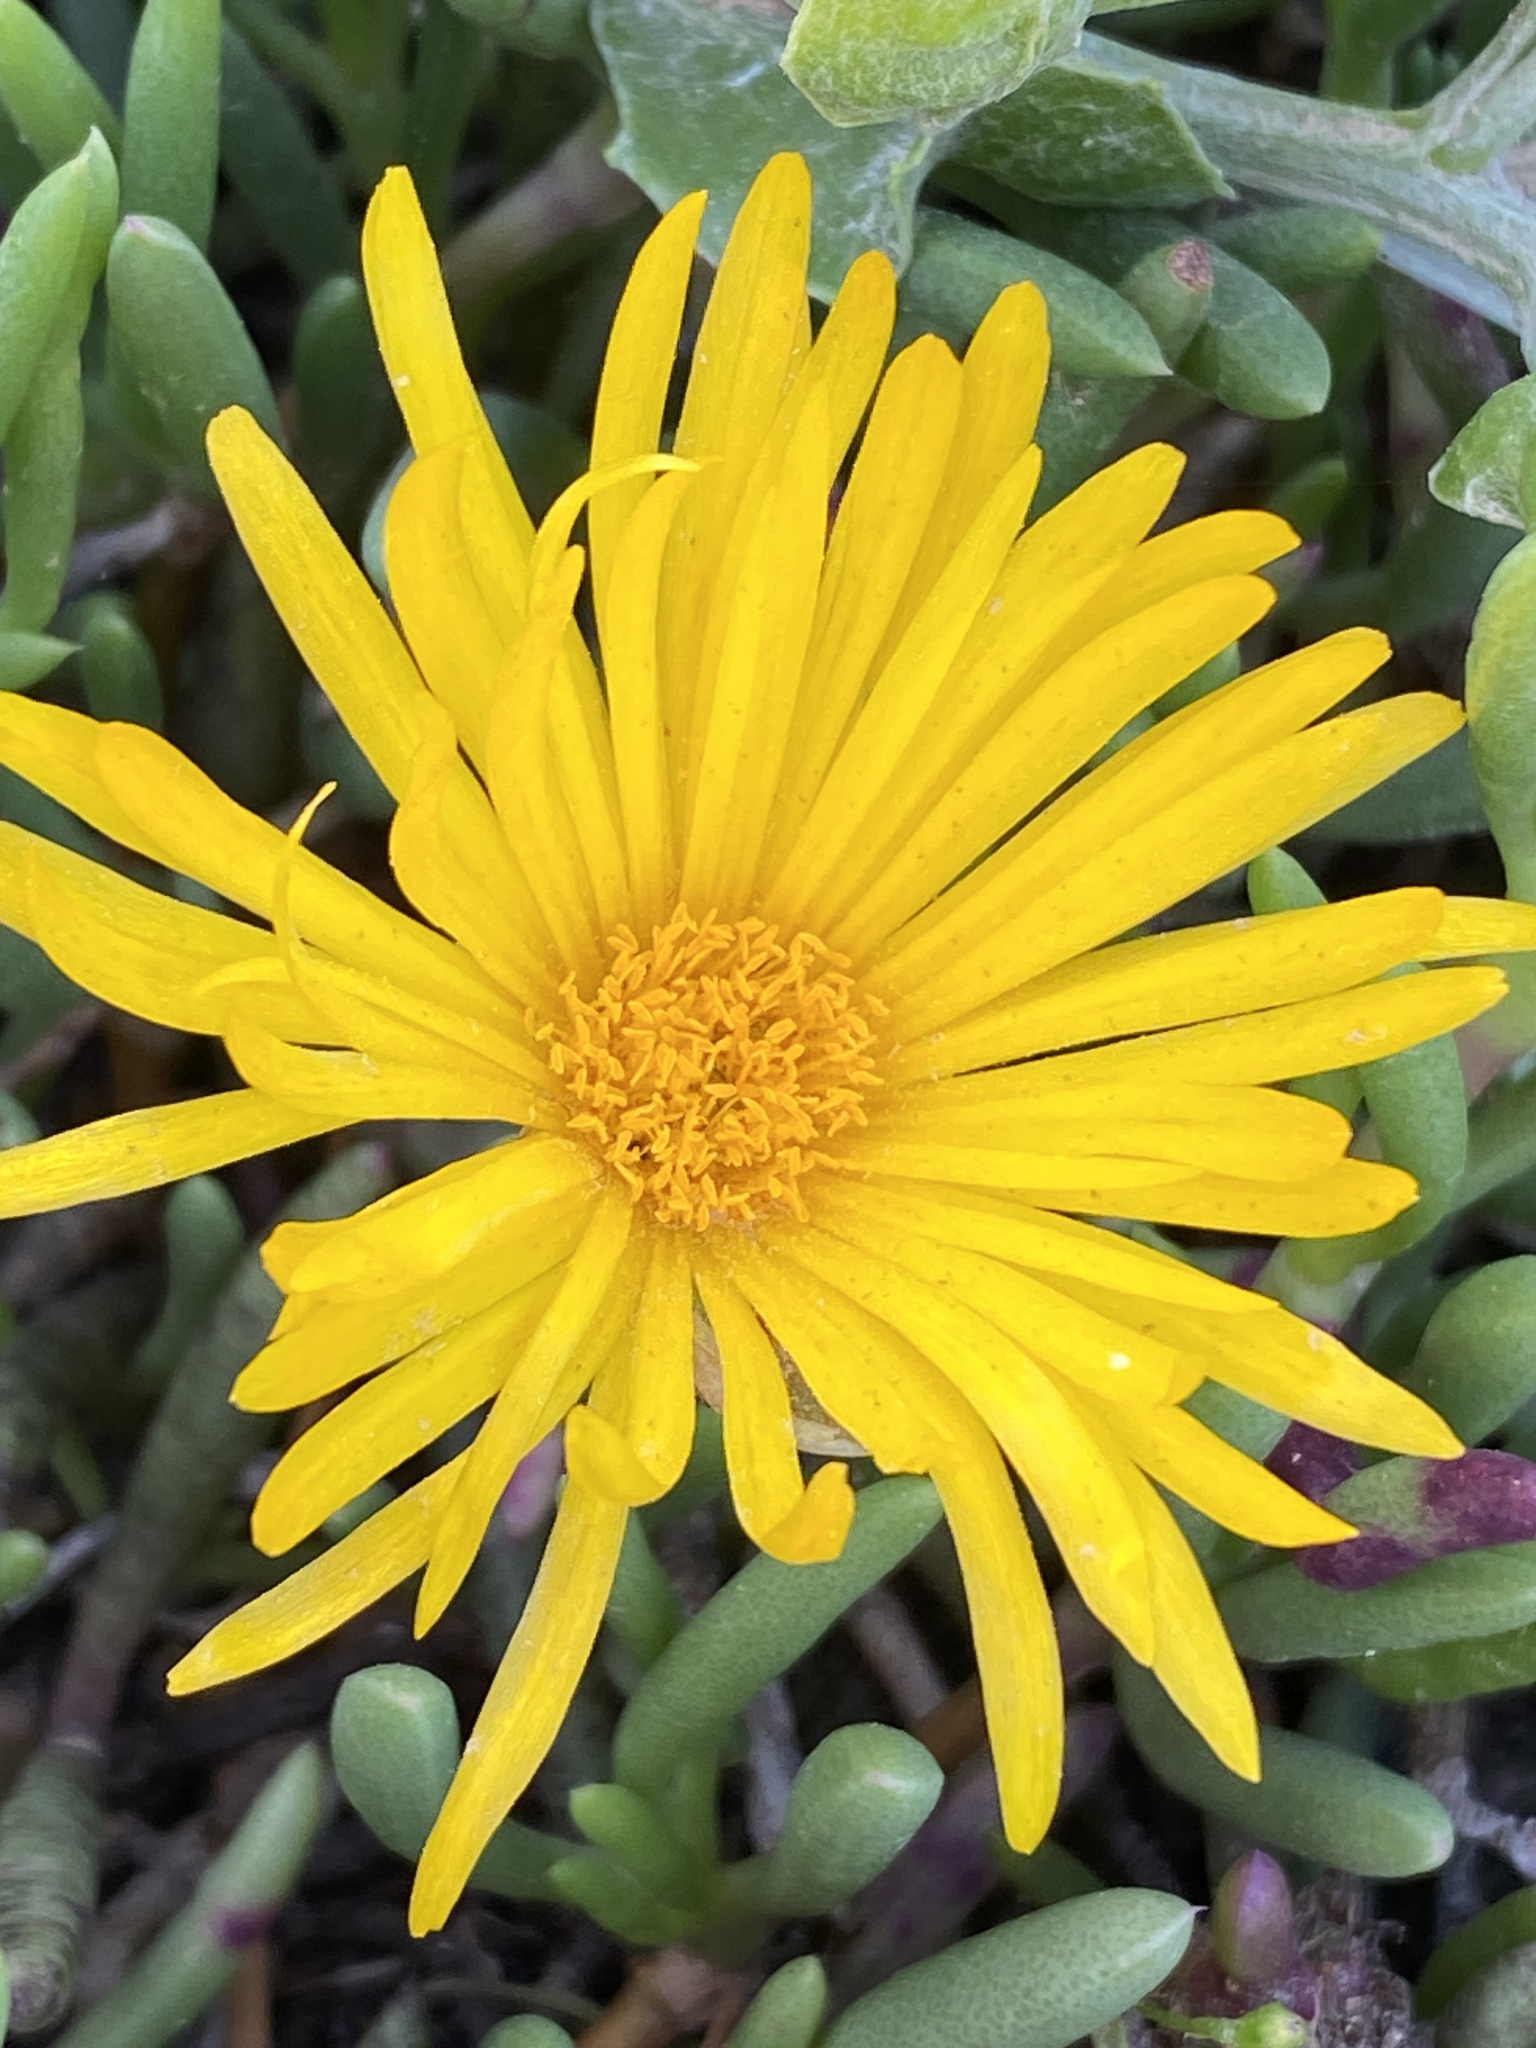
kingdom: Plantae
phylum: Tracheophyta
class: Magnoliopsida
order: Caryophyllales
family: Aizoaceae
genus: Jordaaniella
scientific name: Jordaaniella dubia
